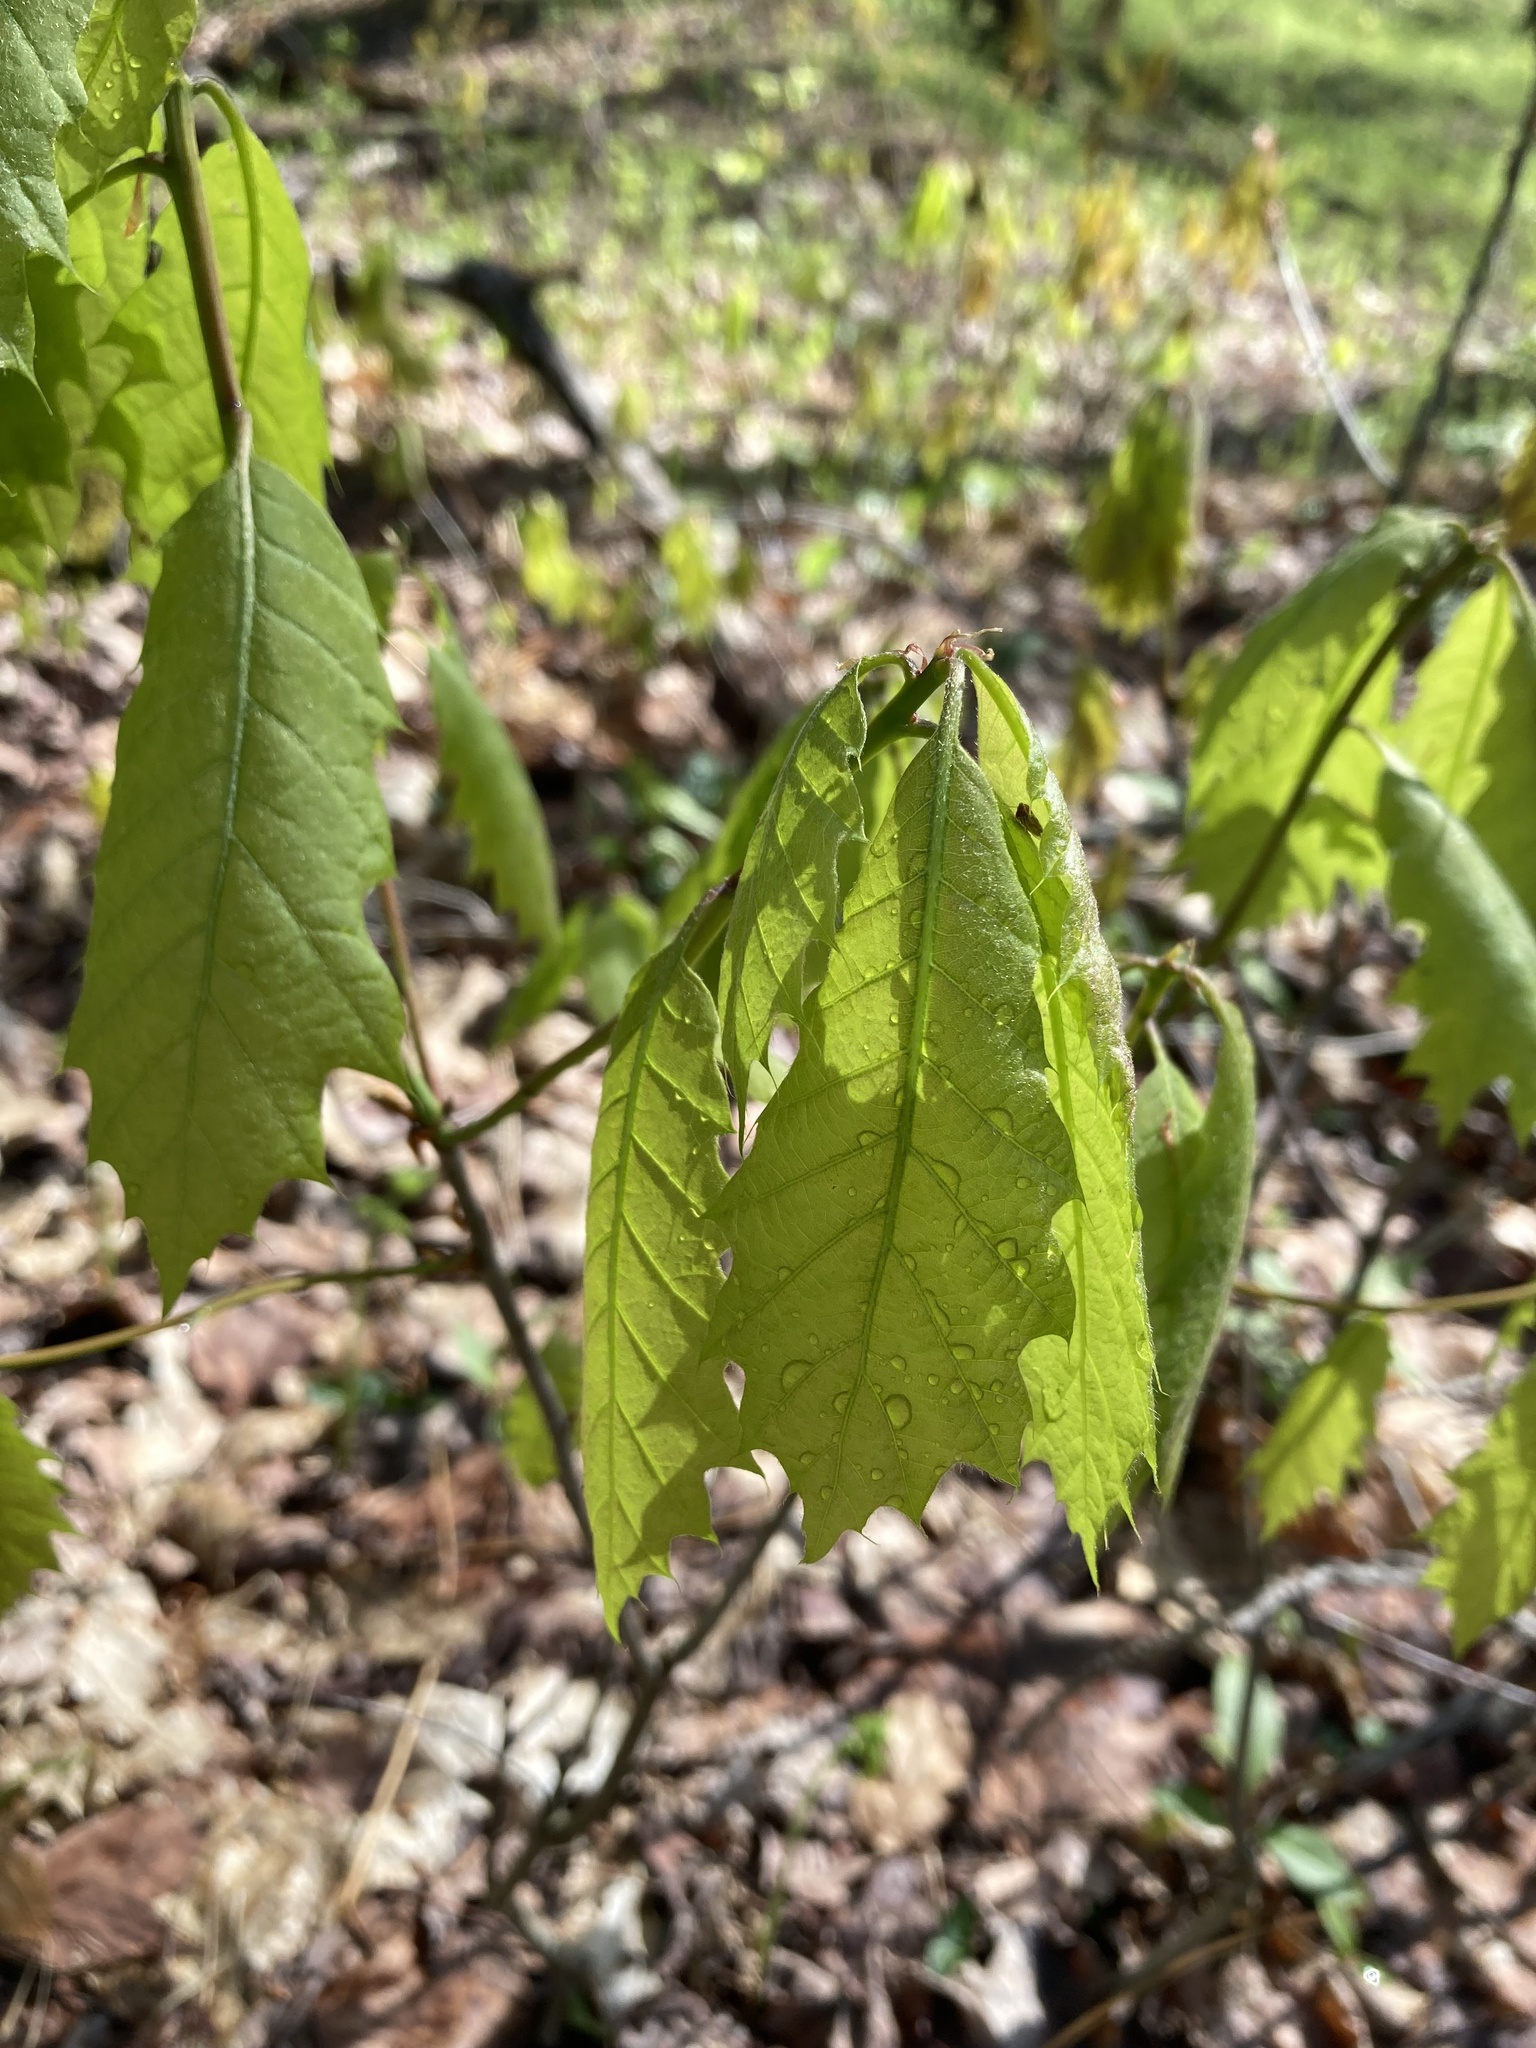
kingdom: Plantae
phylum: Tracheophyta
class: Magnoliopsida
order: Fagales
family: Fagaceae
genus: Quercus
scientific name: Quercus rubra
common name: Red oak
